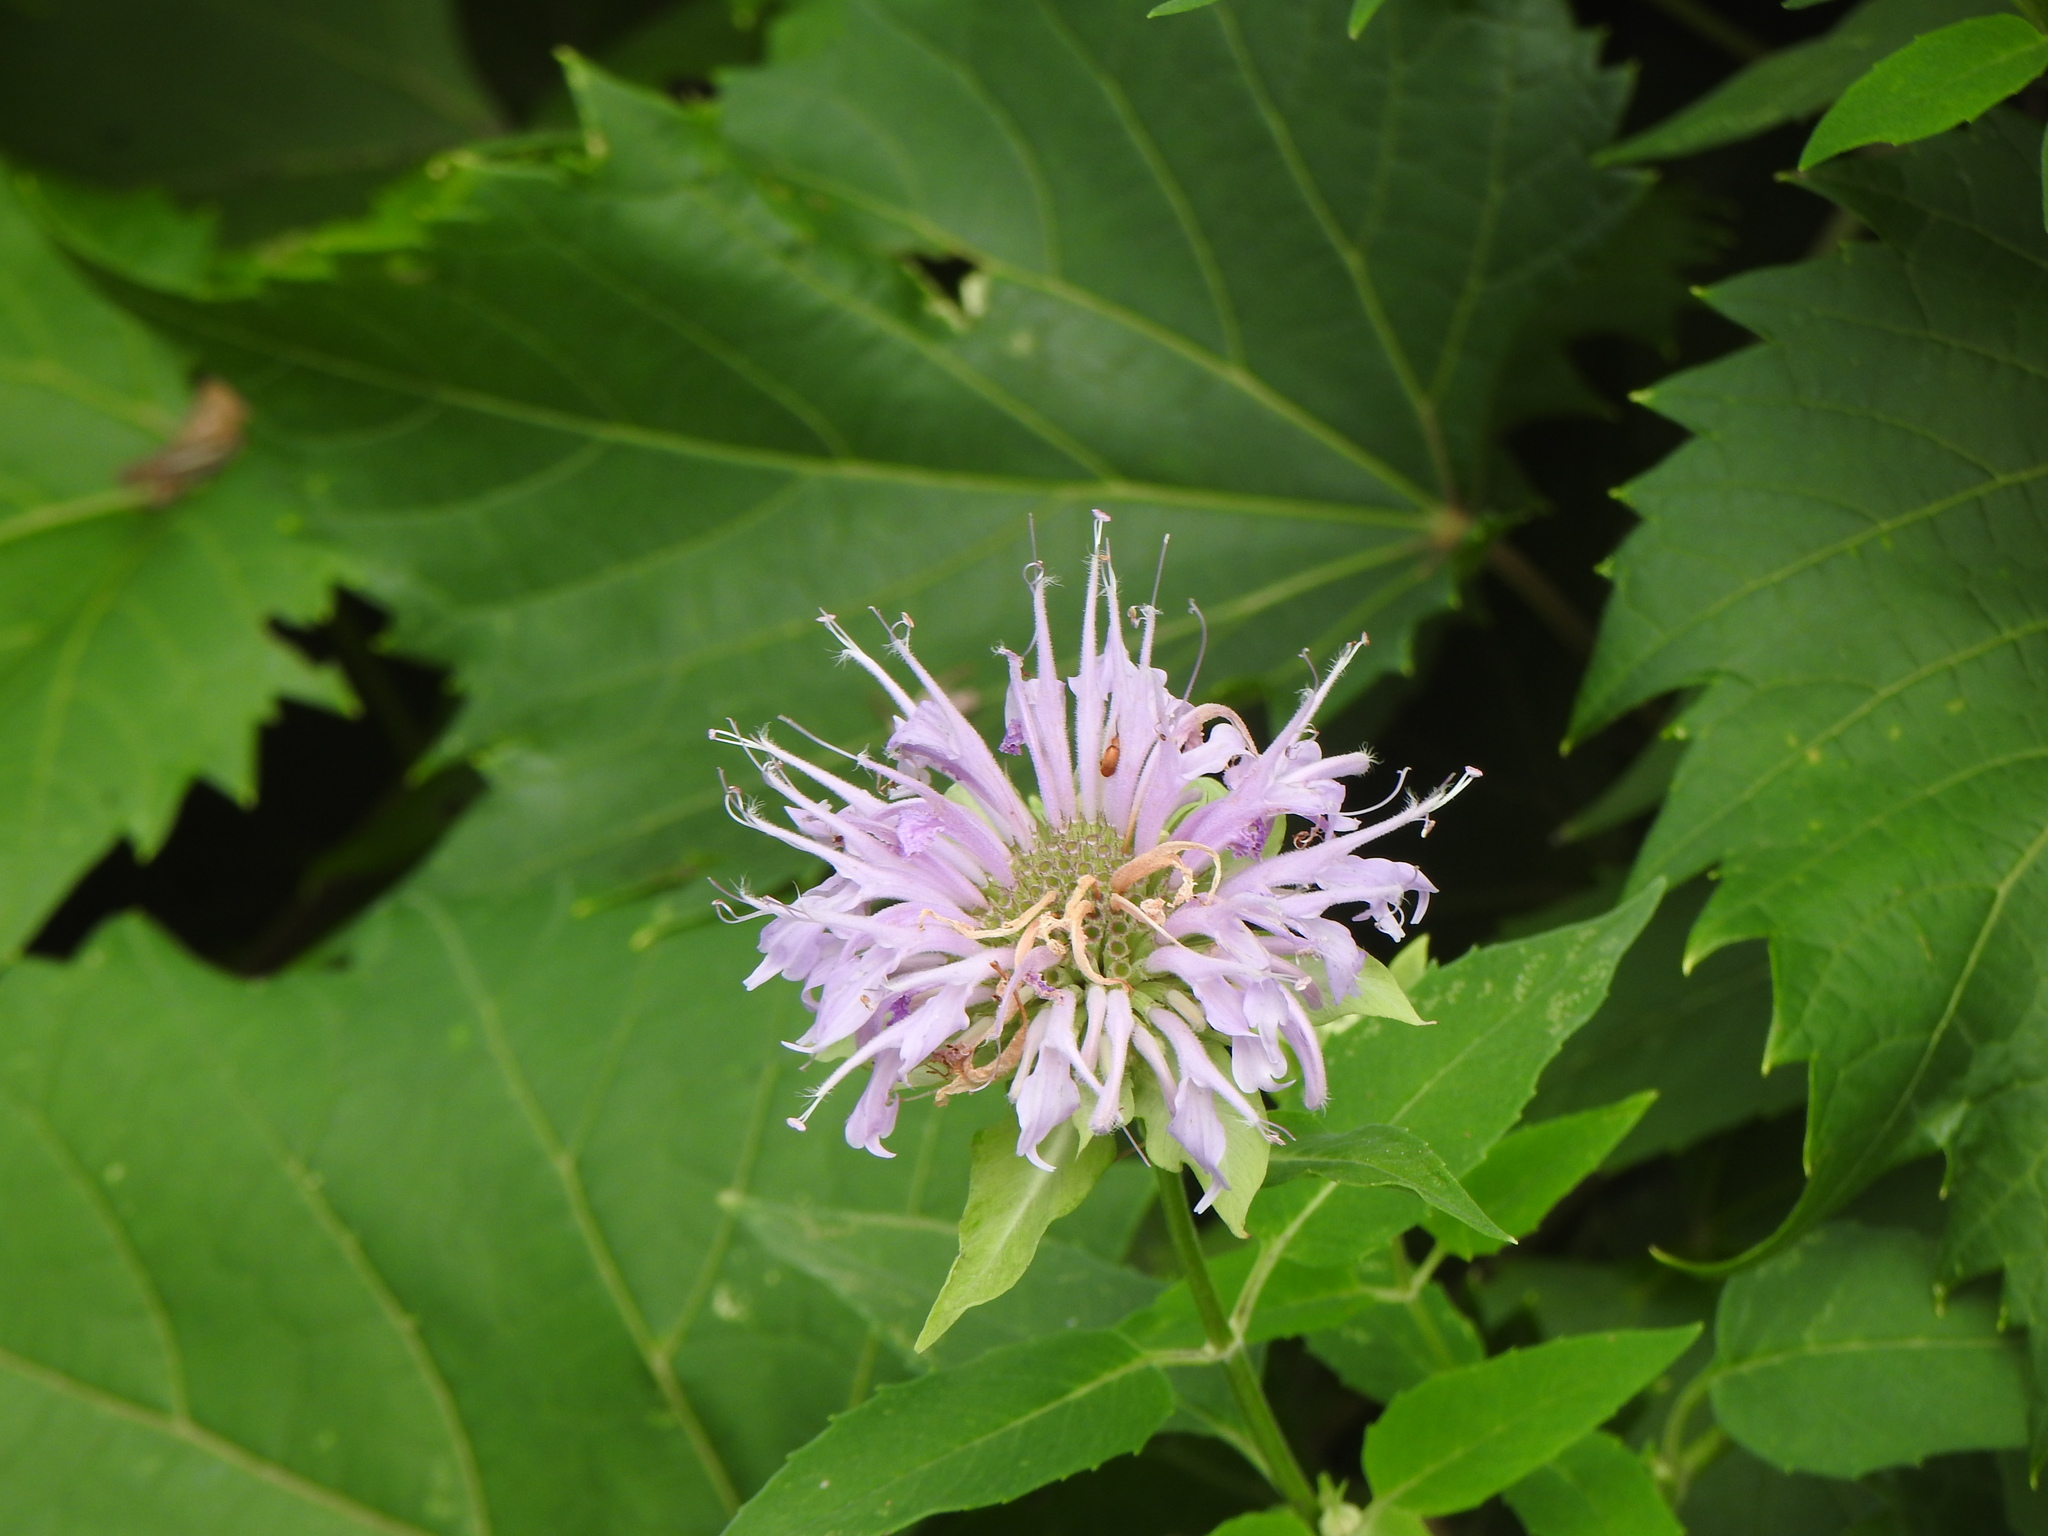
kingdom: Plantae
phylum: Tracheophyta
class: Magnoliopsida
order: Lamiales
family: Lamiaceae
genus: Monarda
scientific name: Monarda fistulosa
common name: Purple beebalm
